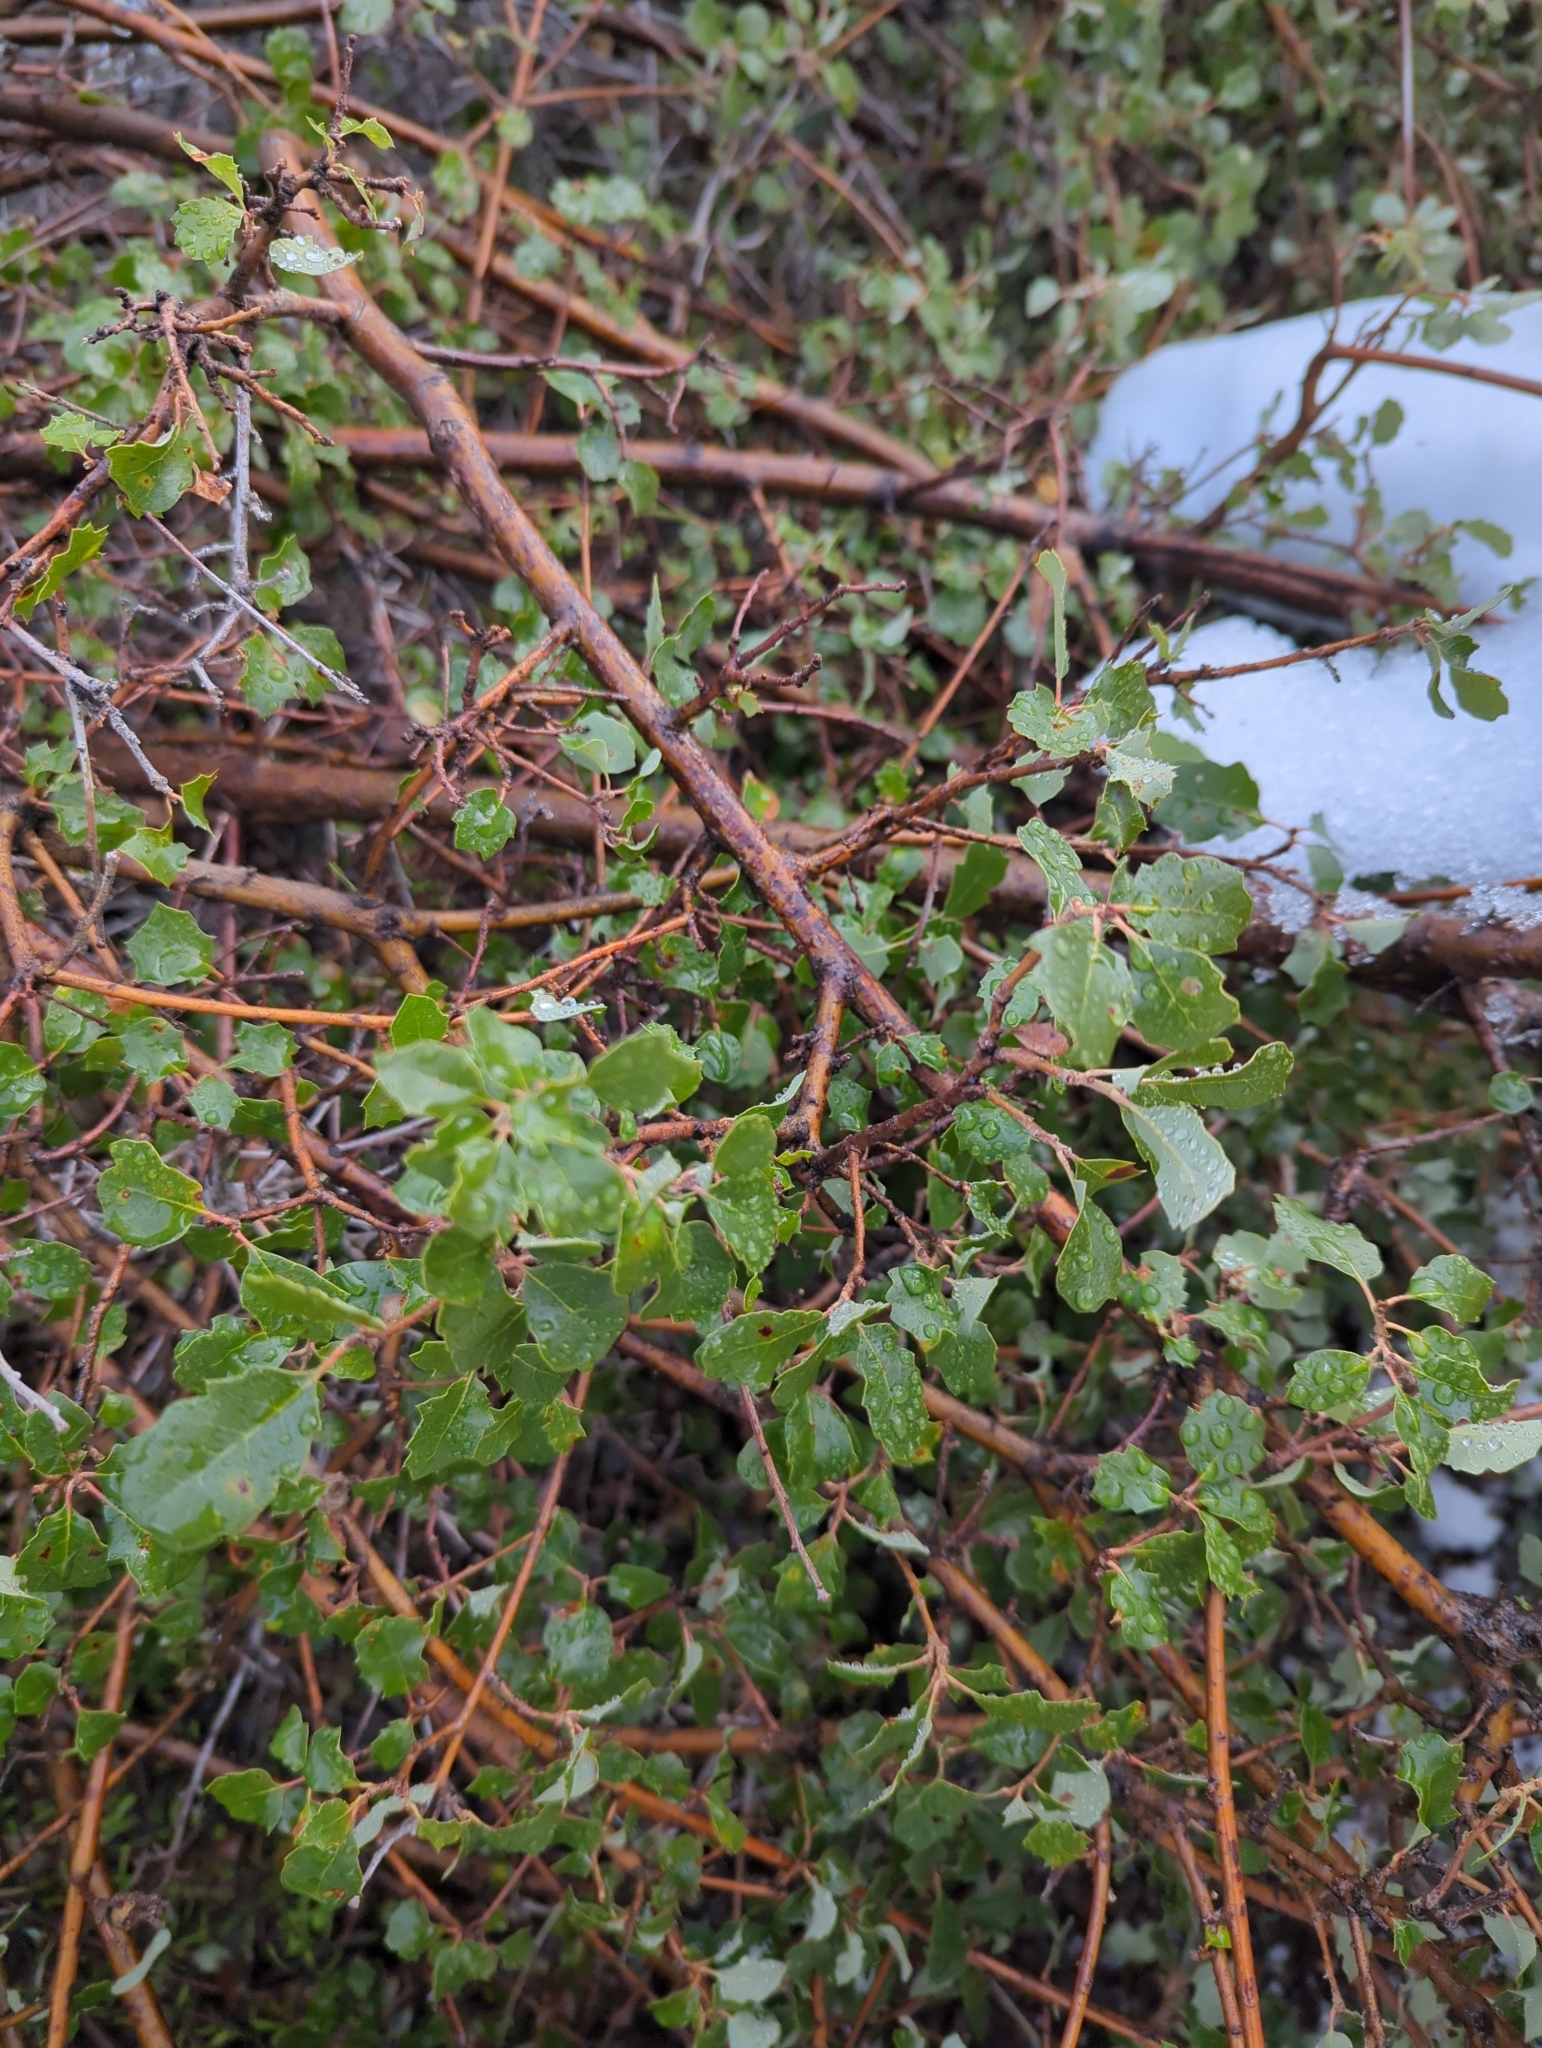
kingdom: Plantae
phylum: Tracheophyta
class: Magnoliopsida
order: Fagales
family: Fagaceae
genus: Quercus
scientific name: Quercus berberidifolia
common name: California scrub oak
